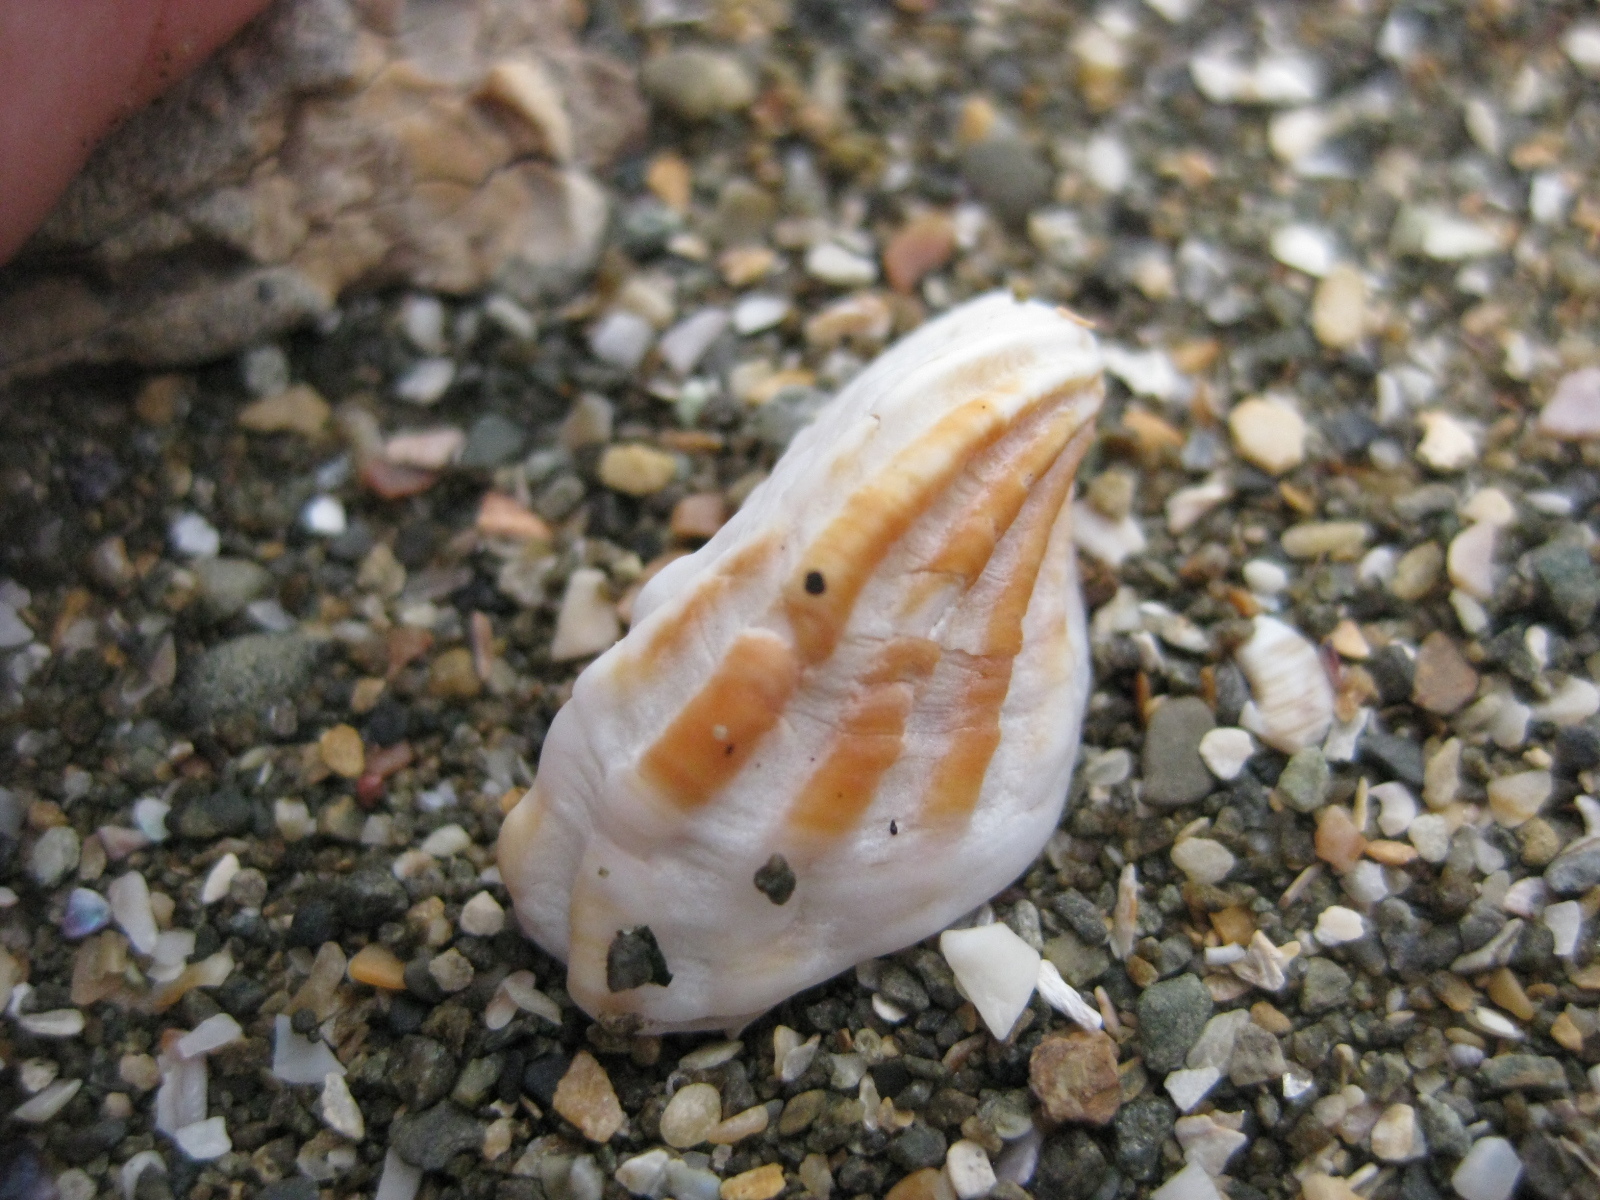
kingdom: Animalia
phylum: Mollusca
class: Bivalvia
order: Carditida
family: Carditidae
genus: Cardita
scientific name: Cardita distorta
